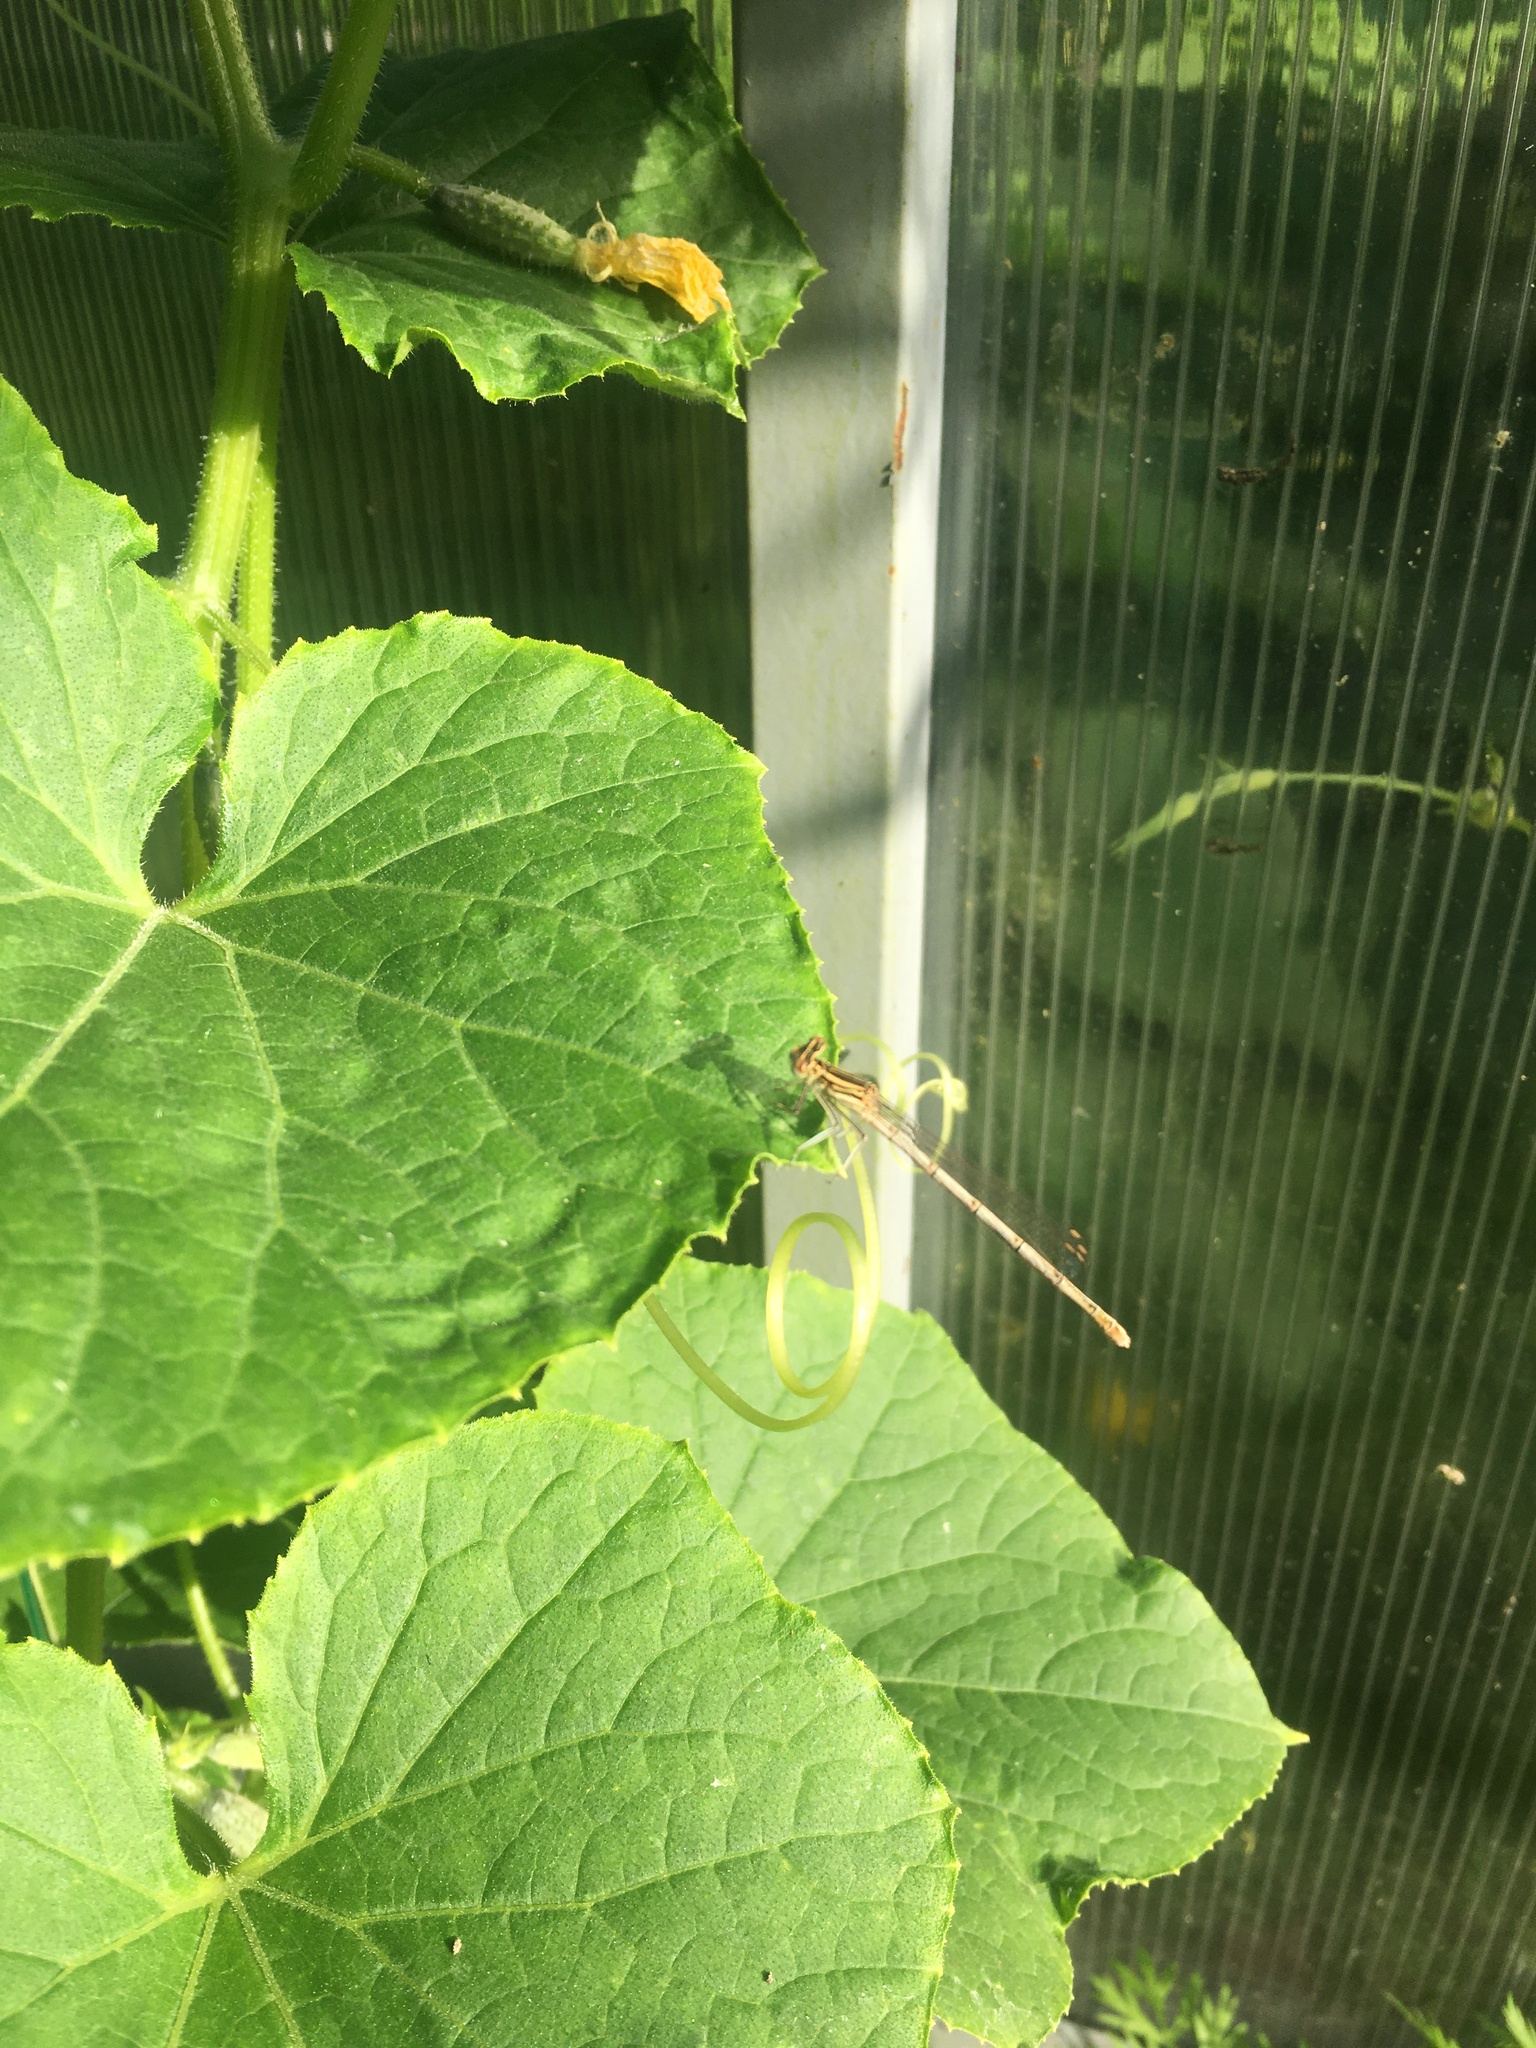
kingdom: Animalia
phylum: Arthropoda
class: Insecta
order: Odonata
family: Platycnemididae
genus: Platycnemis
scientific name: Platycnemis pennipes
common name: White-legged damselfly
